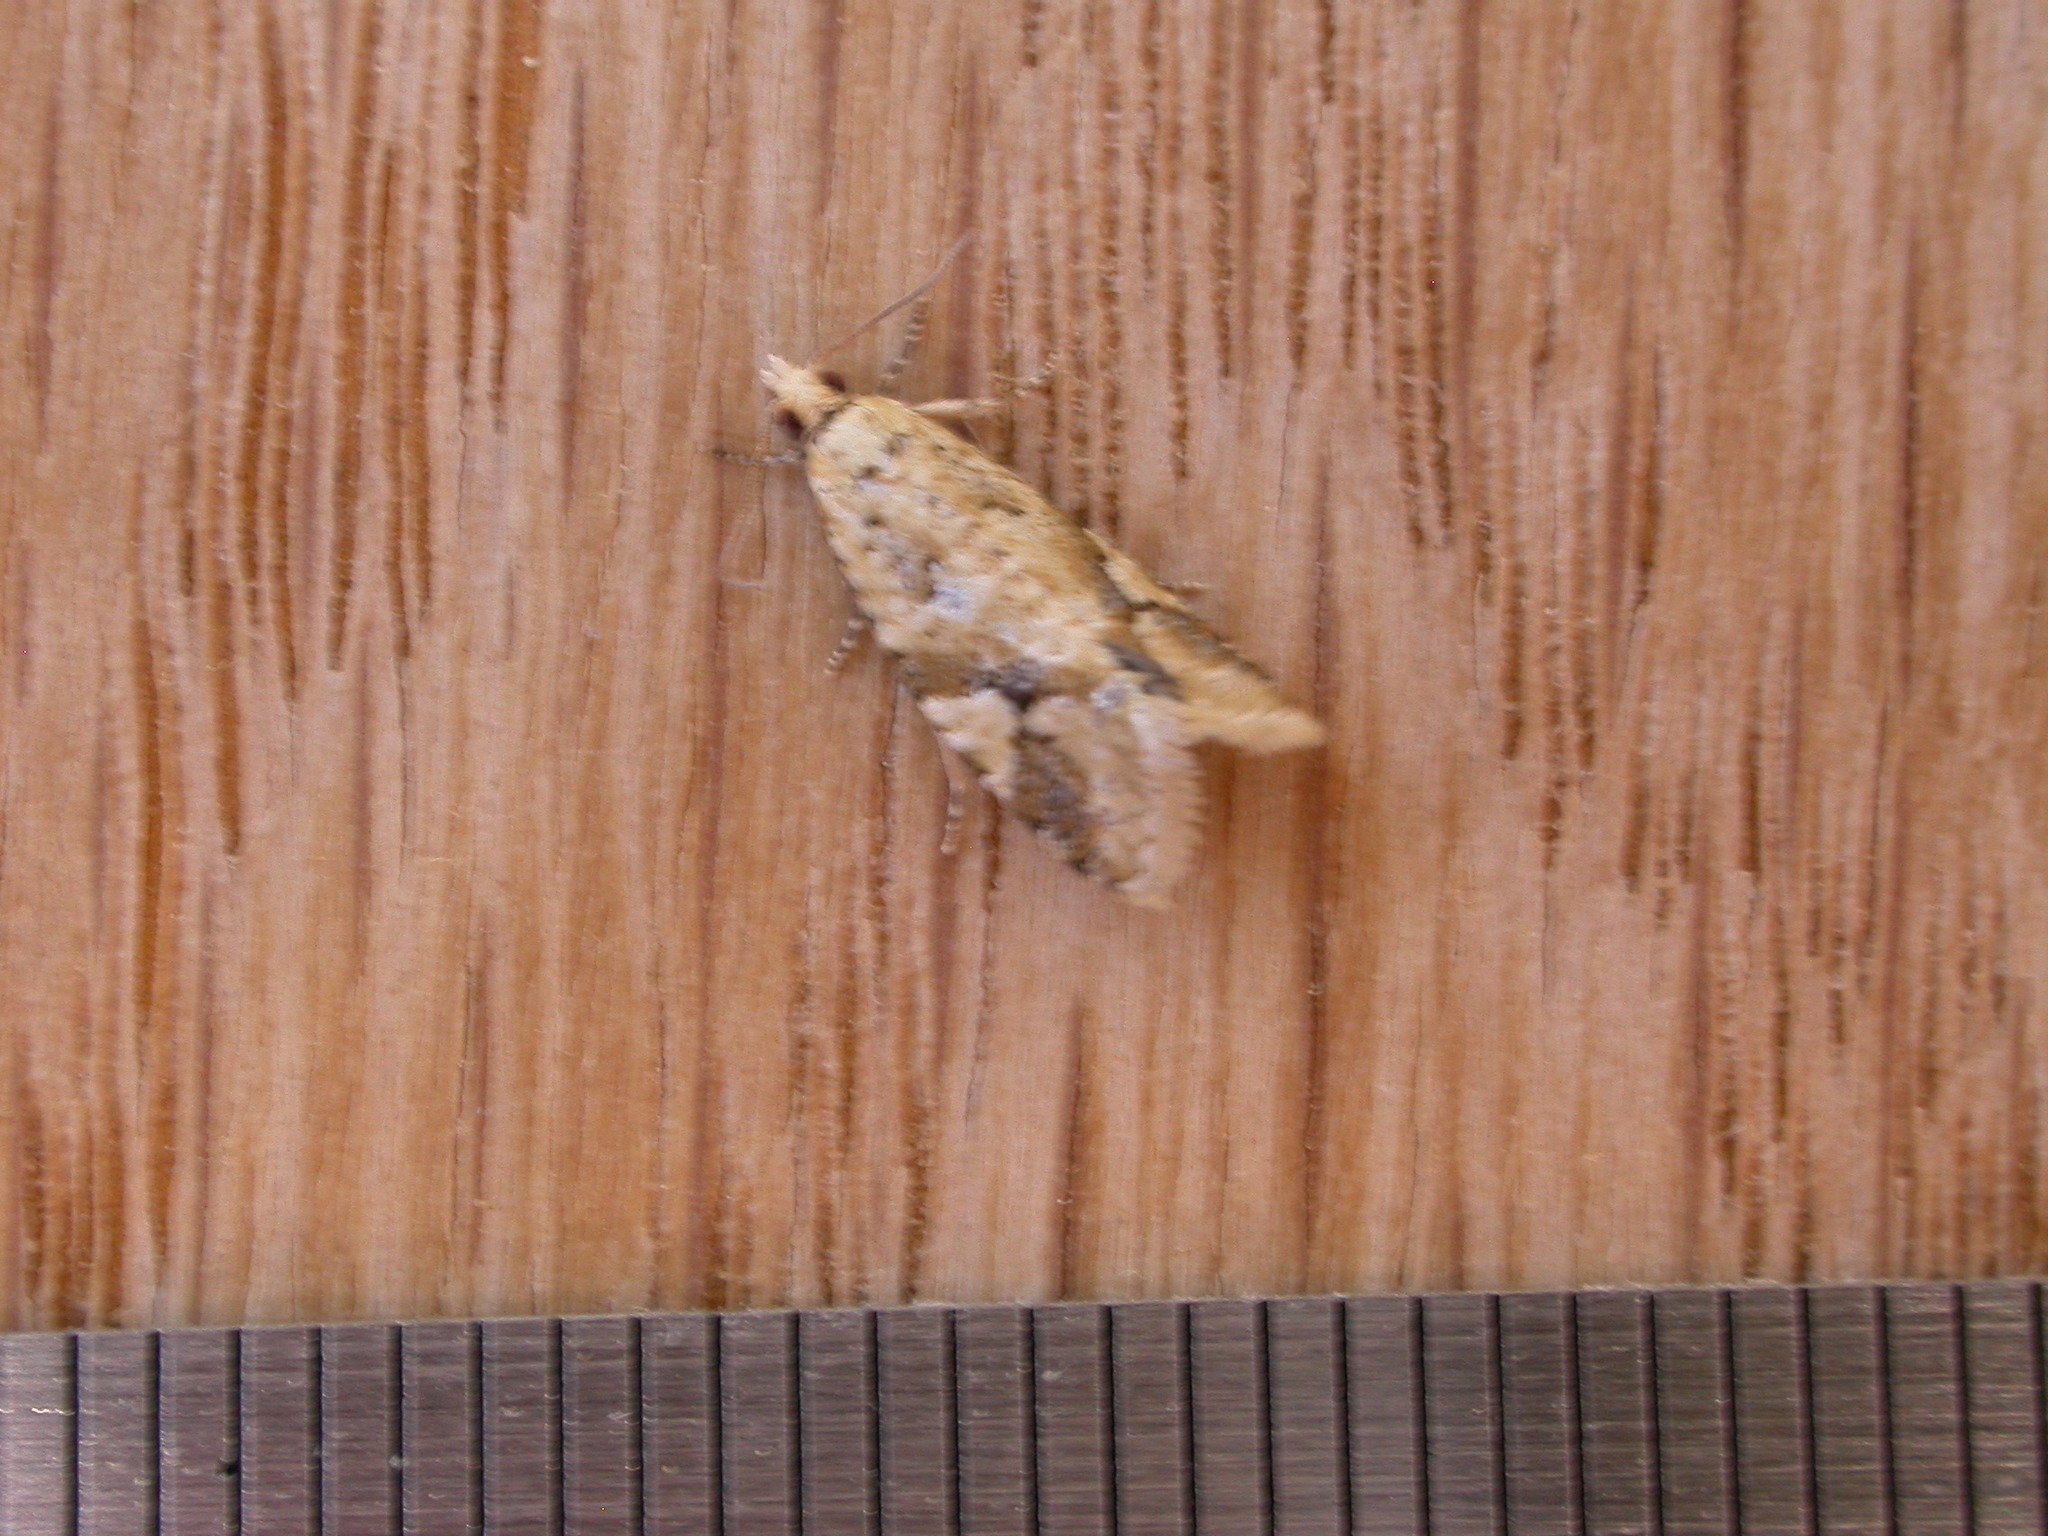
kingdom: Animalia
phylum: Arthropoda
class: Insecta
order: Lepidoptera
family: Tortricidae
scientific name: Tortricidae
